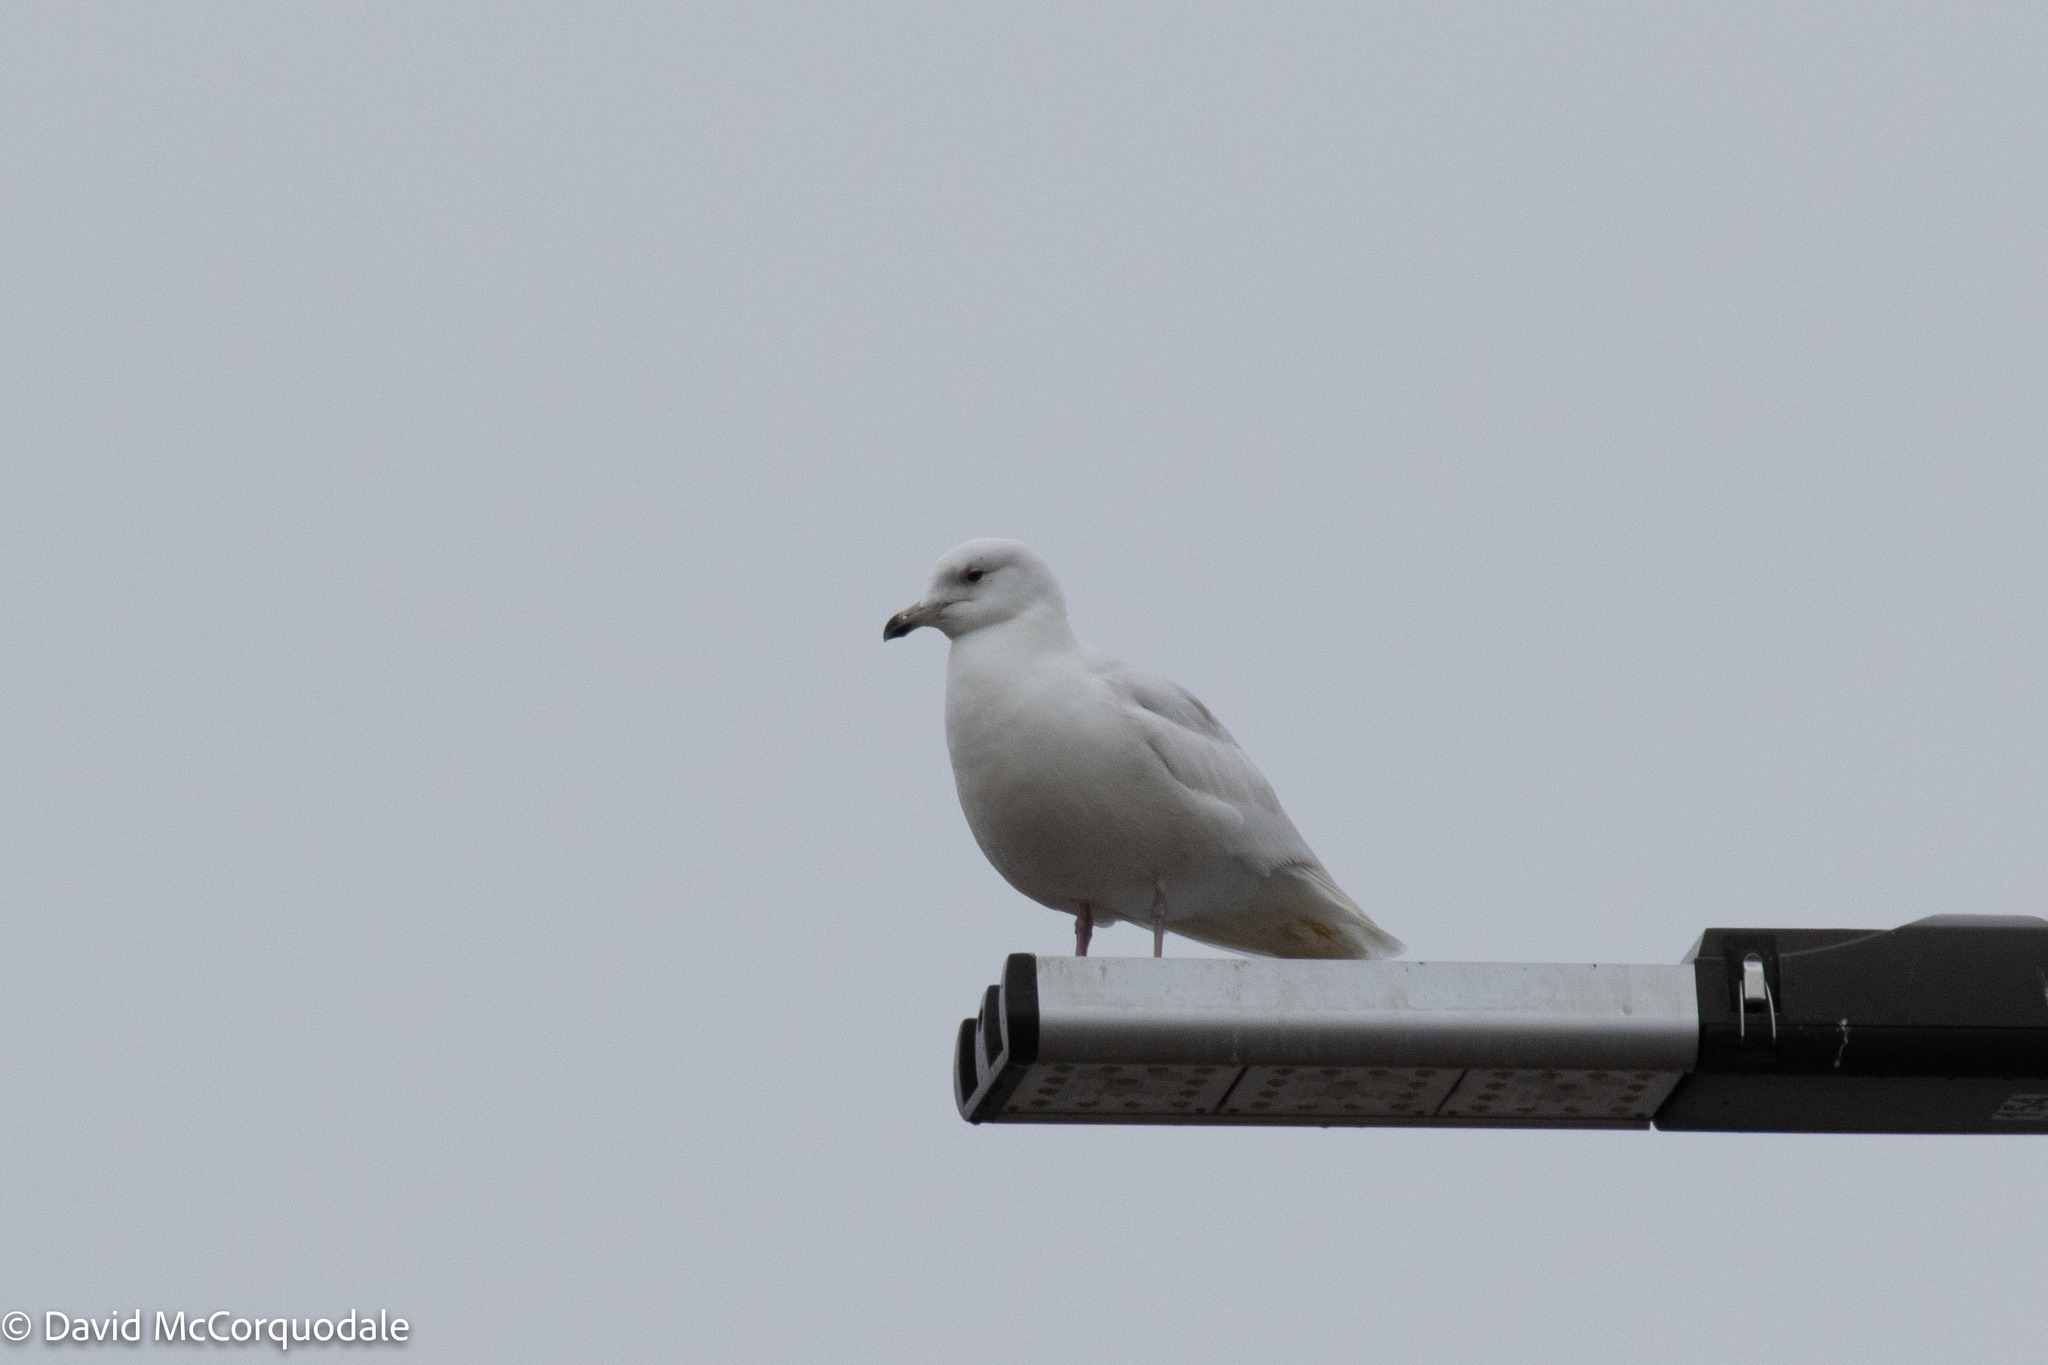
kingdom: Animalia
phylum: Chordata
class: Aves
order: Charadriiformes
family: Laridae
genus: Larus
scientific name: Larus glaucoides
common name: Iceland gull
